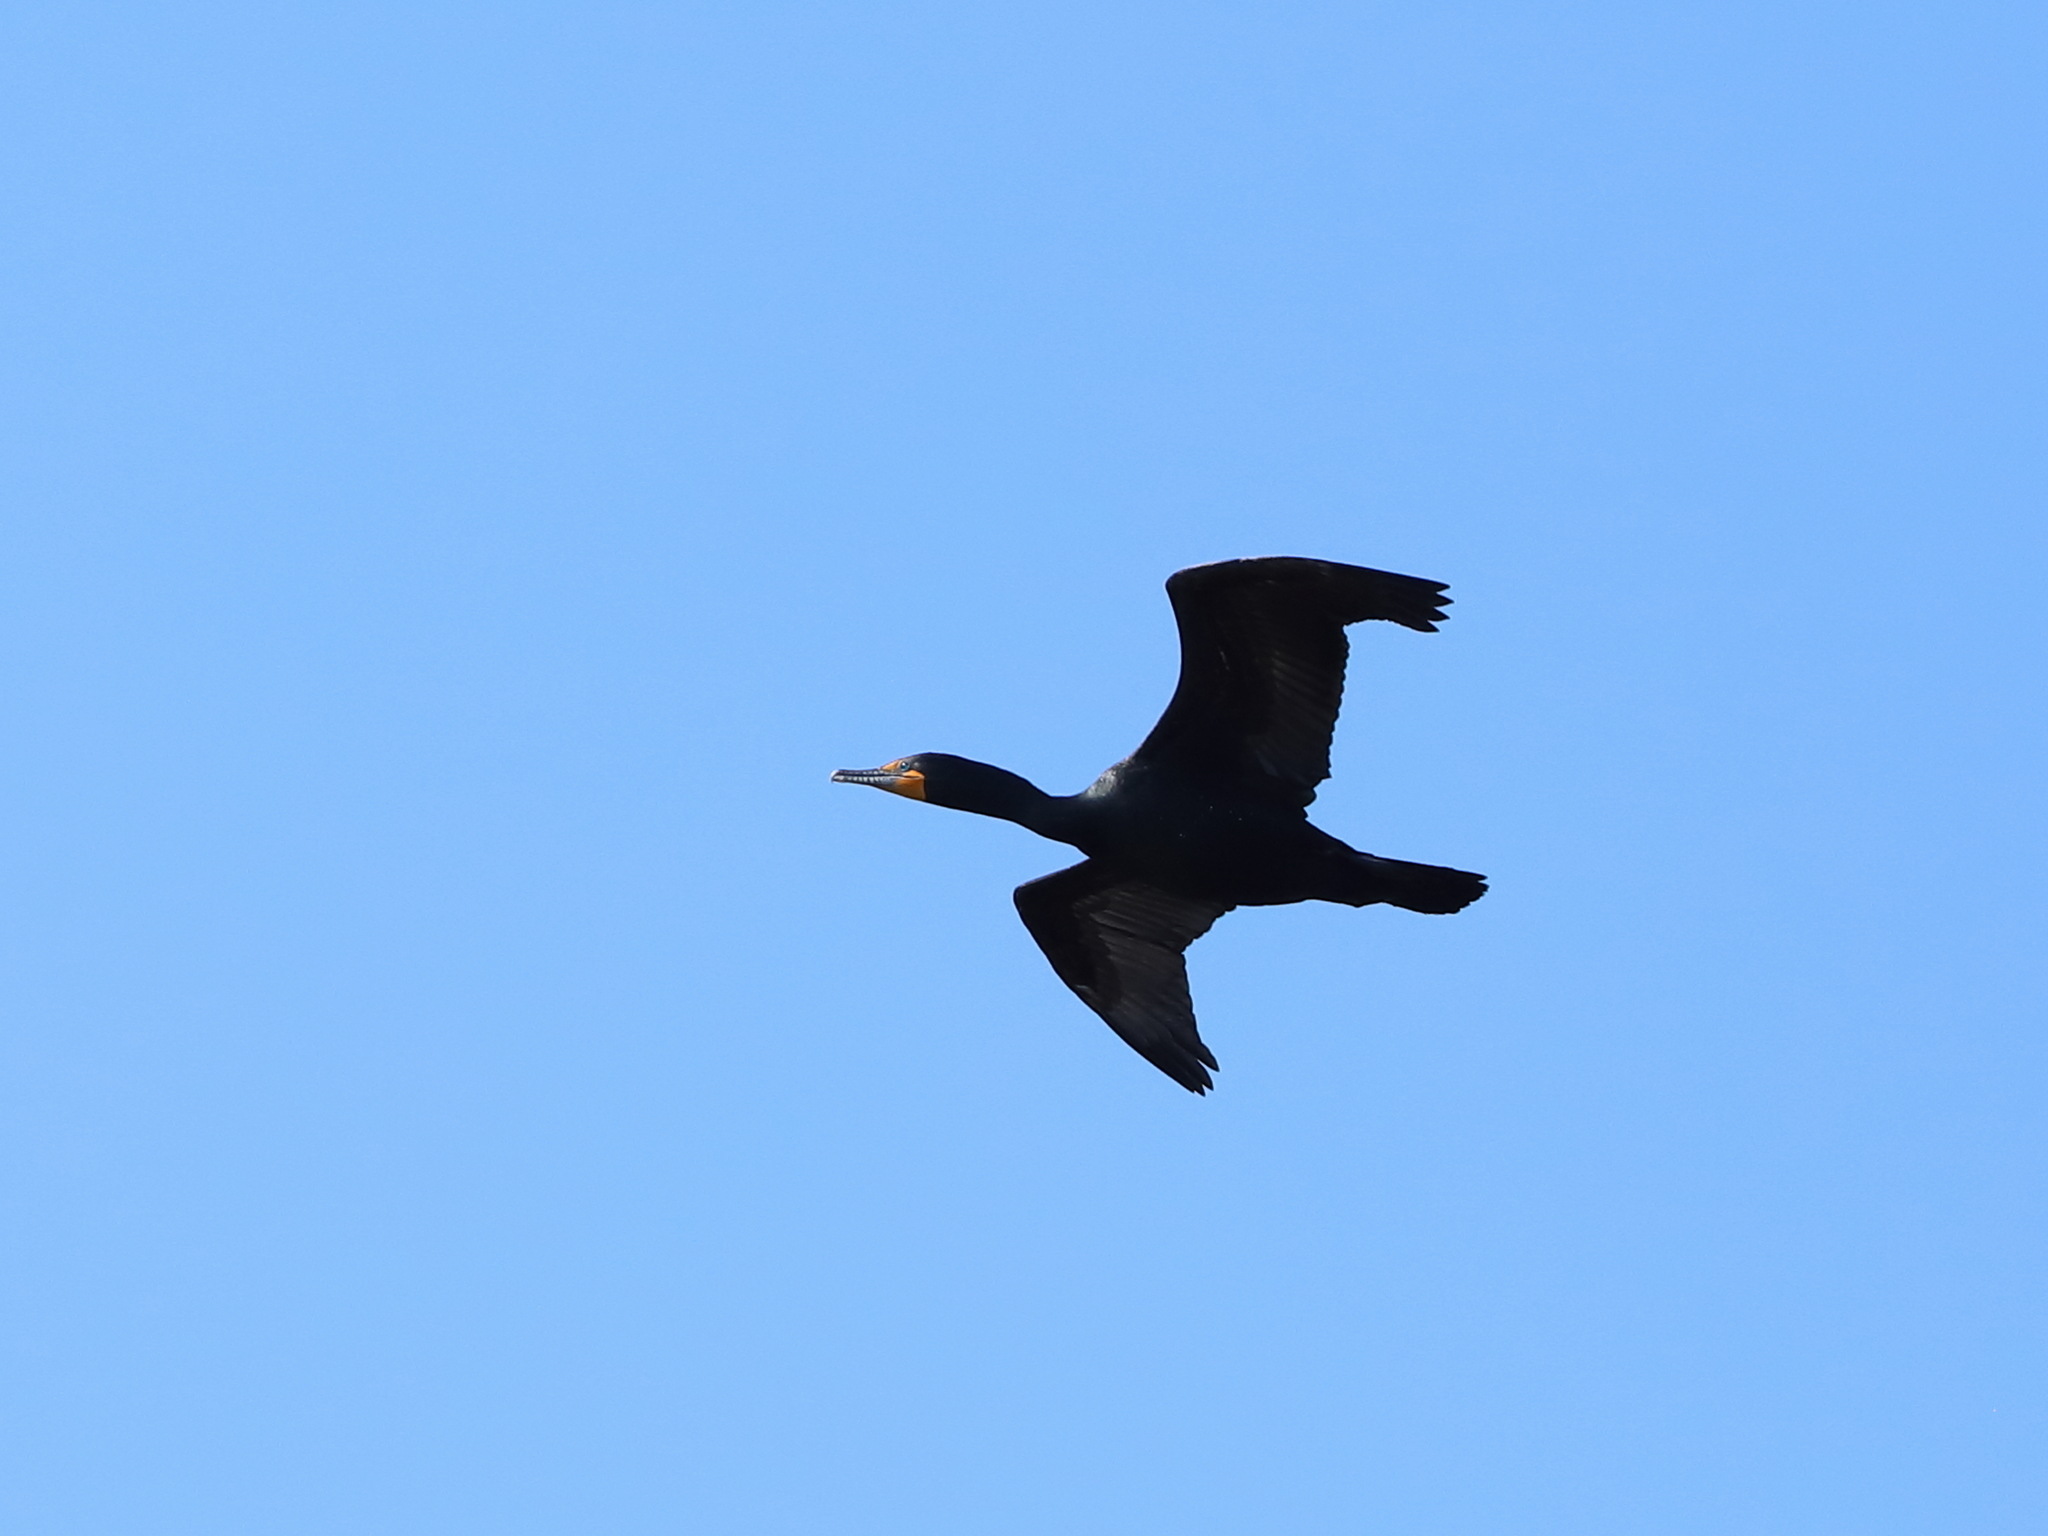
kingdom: Animalia
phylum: Chordata
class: Aves
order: Suliformes
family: Phalacrocoracidae
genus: Phalacrocorax
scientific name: Phalacrocorax auritus
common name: Double-crested cormorant
